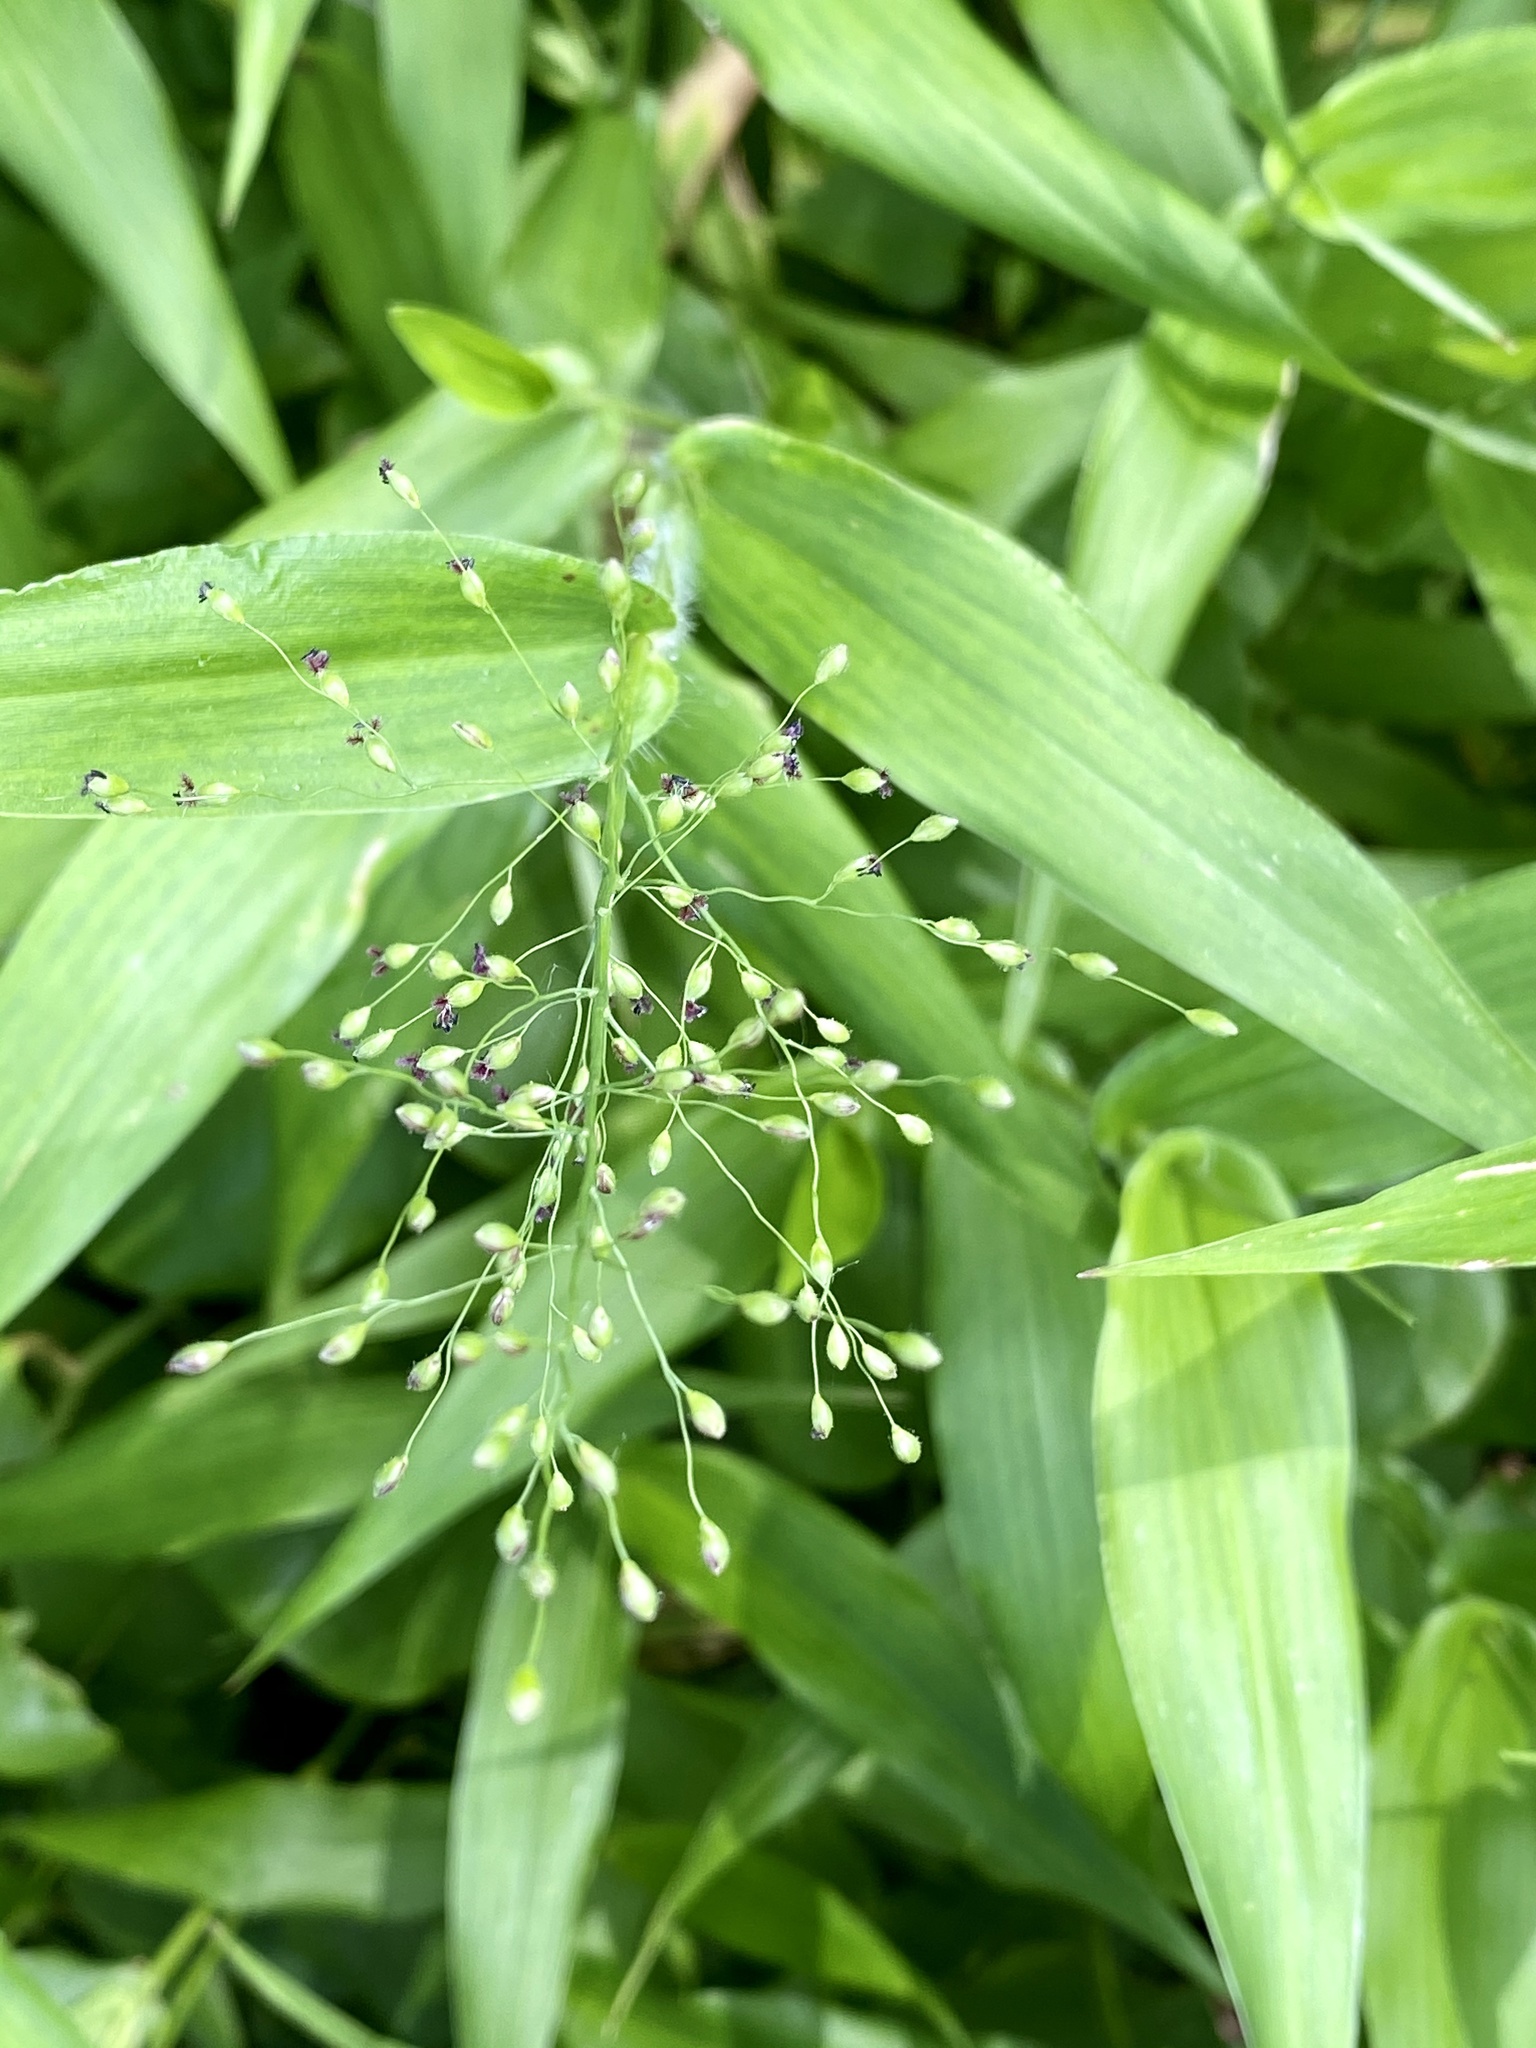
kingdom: Plantae
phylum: Tracheophyta
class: Liliopsida
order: Poales
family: Poaceae
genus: Dichanthelium
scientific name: Dichanthelium clandestinum
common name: Deer-tongue grass
